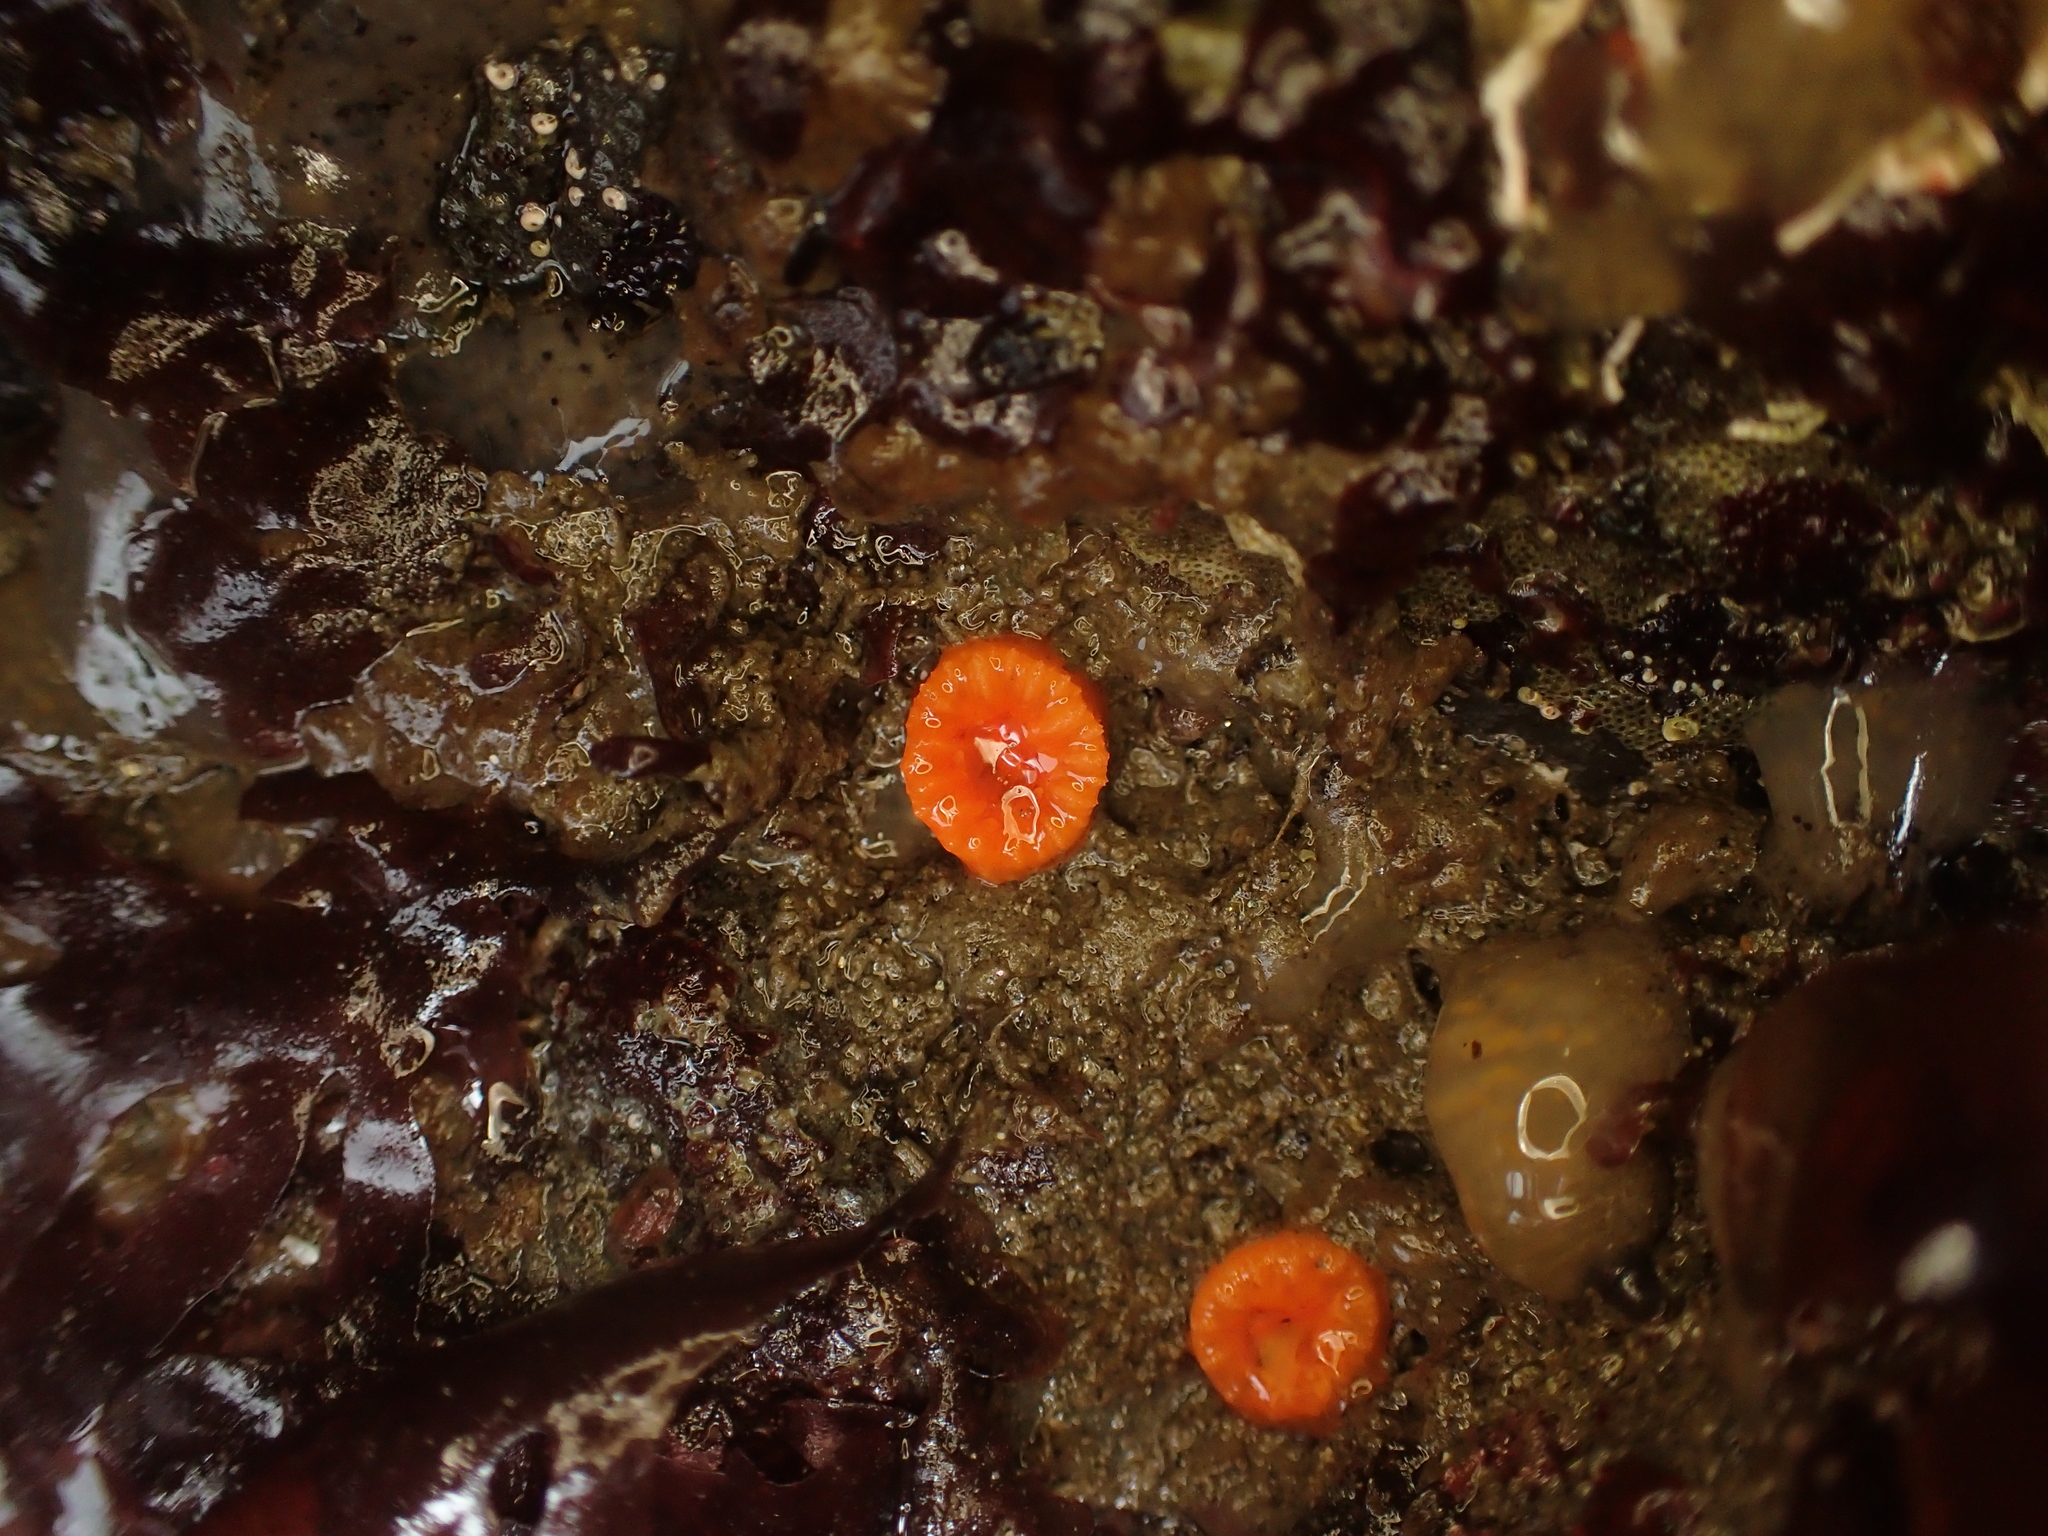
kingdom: Animalia
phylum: Cnidaria
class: Anthozoa
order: Scleractinia
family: Dendrophylliidae
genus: Balanophyllia
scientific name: Balanophyllia elegans
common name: Orange stony coral
